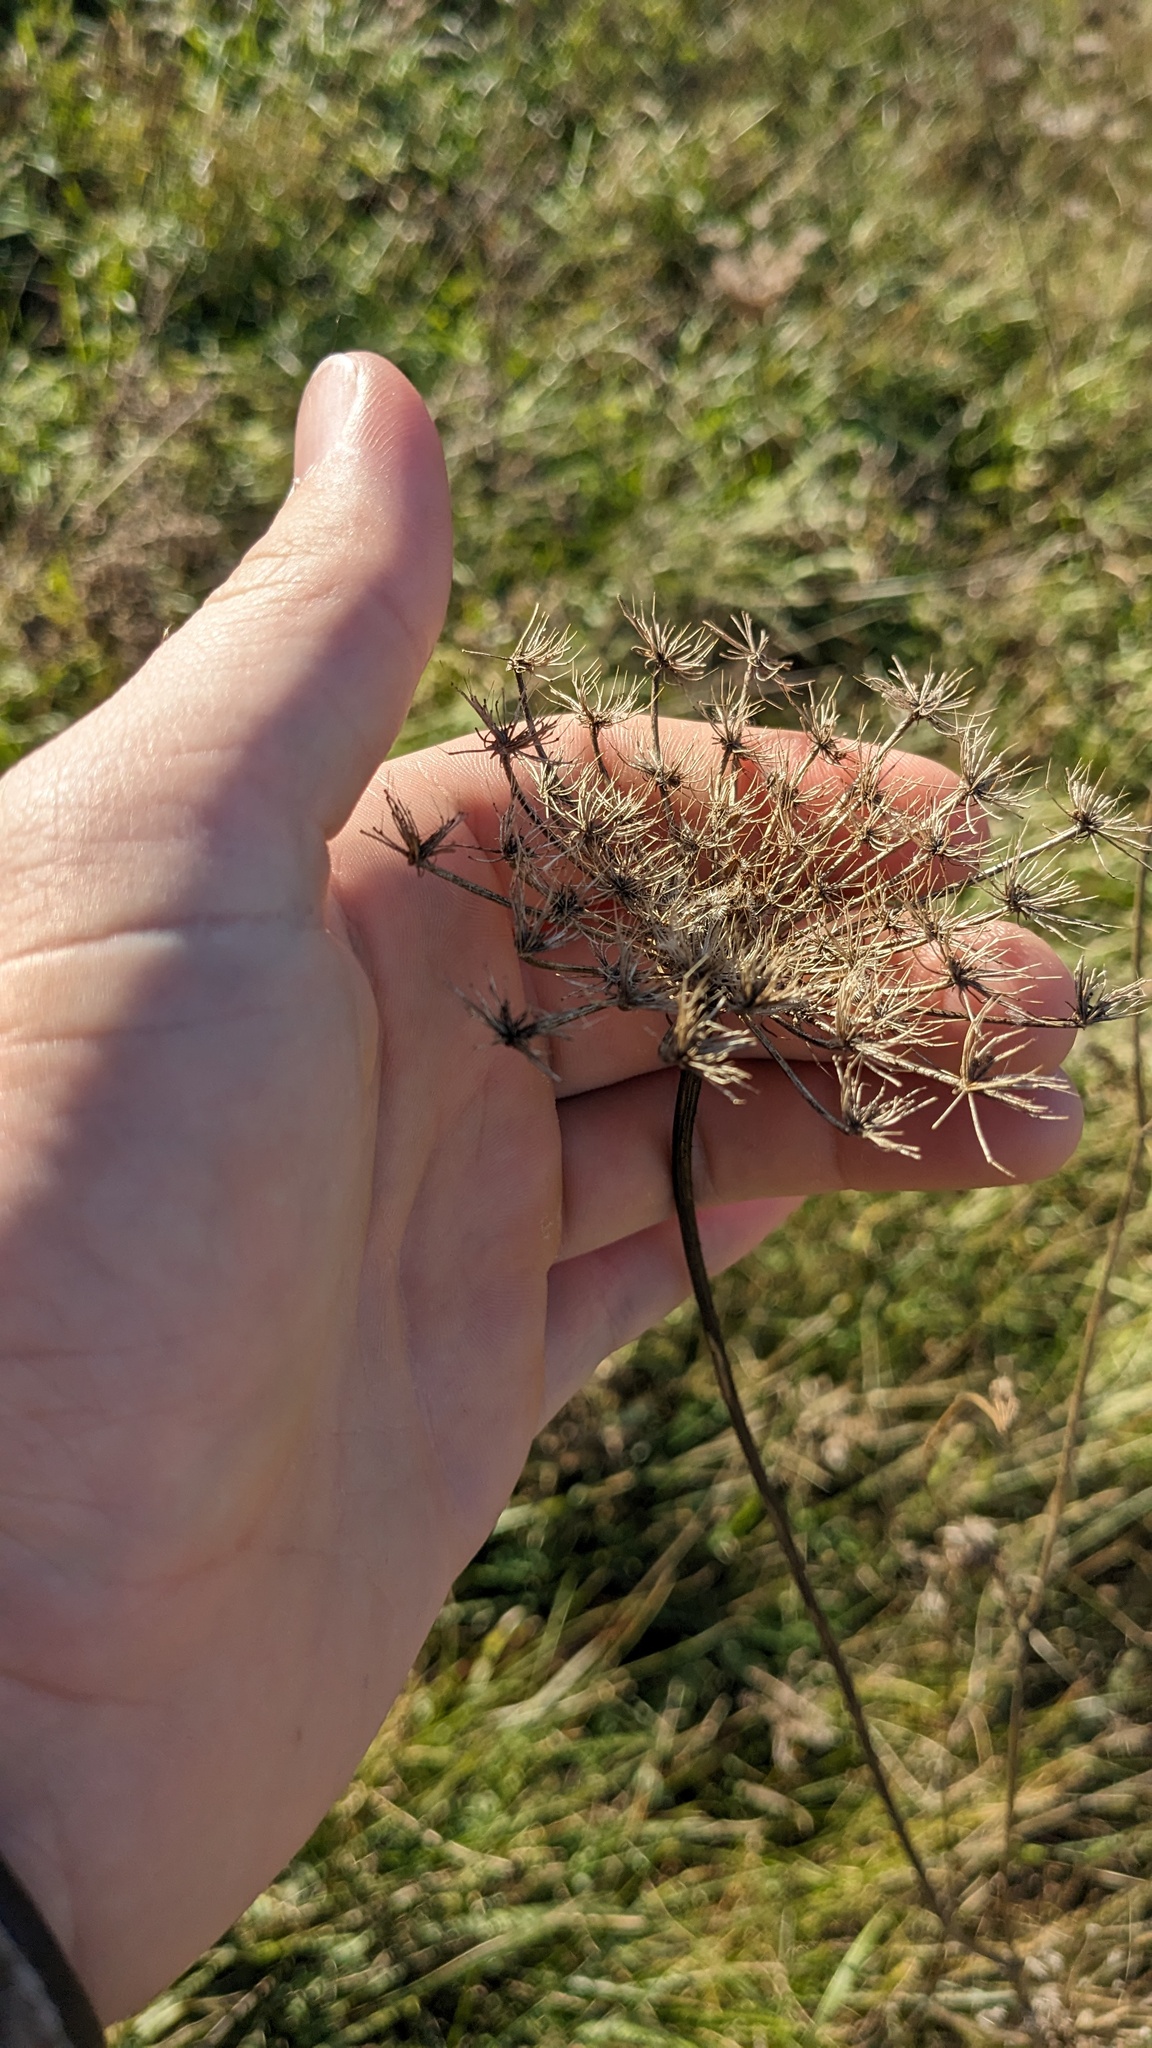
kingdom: Plantae
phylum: Tracheophyta
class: Magnoliopsida
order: Apiales
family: Apiaceae
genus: Daucus
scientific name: Daucus carota
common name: Wild carrot
